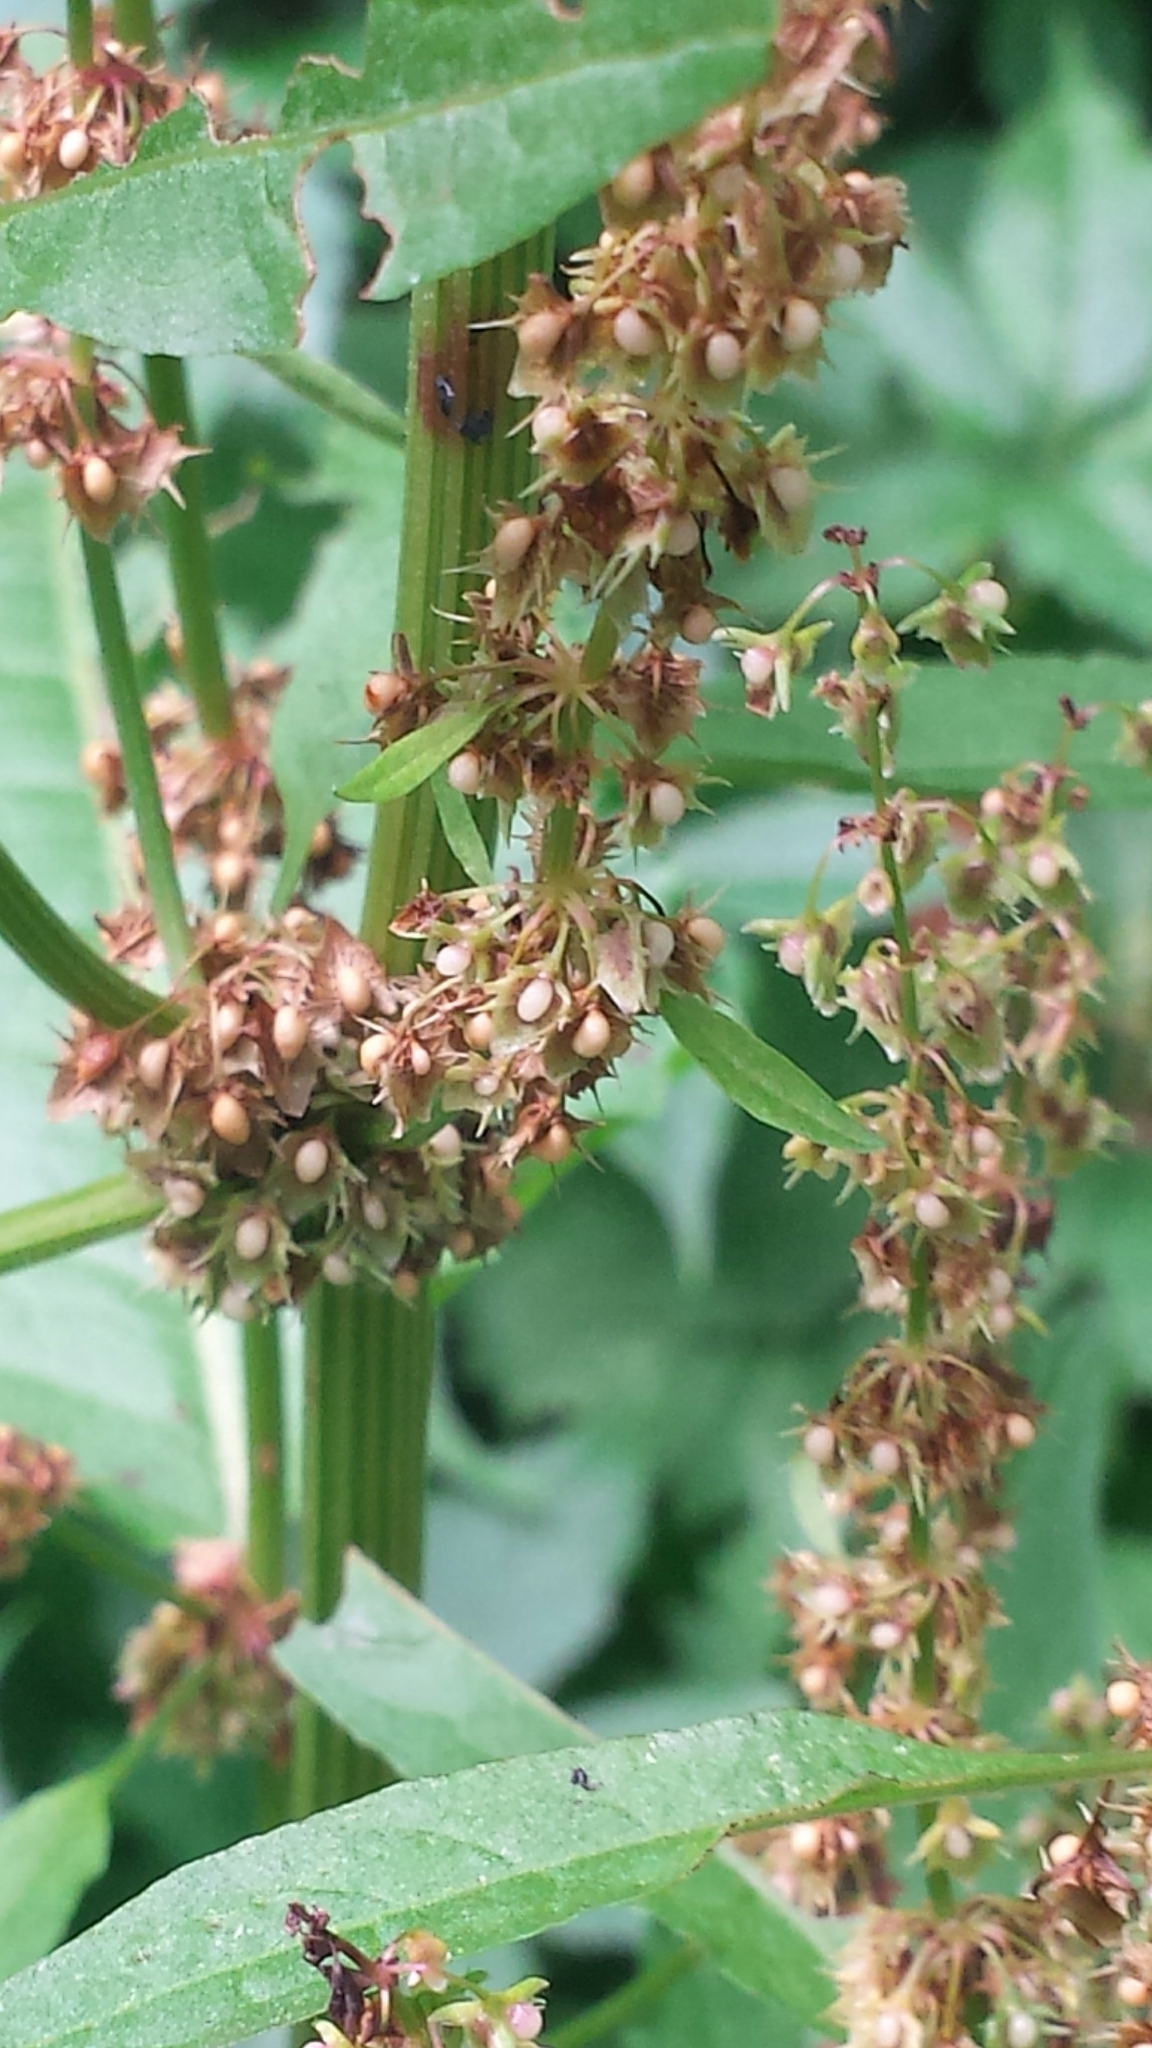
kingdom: Plantae
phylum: Tracheophyta
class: Magnoliopsida
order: Caryophyllales
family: Polygonaceae
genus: Rumex
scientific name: Rumex obtusifolius
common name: Bitter dock
